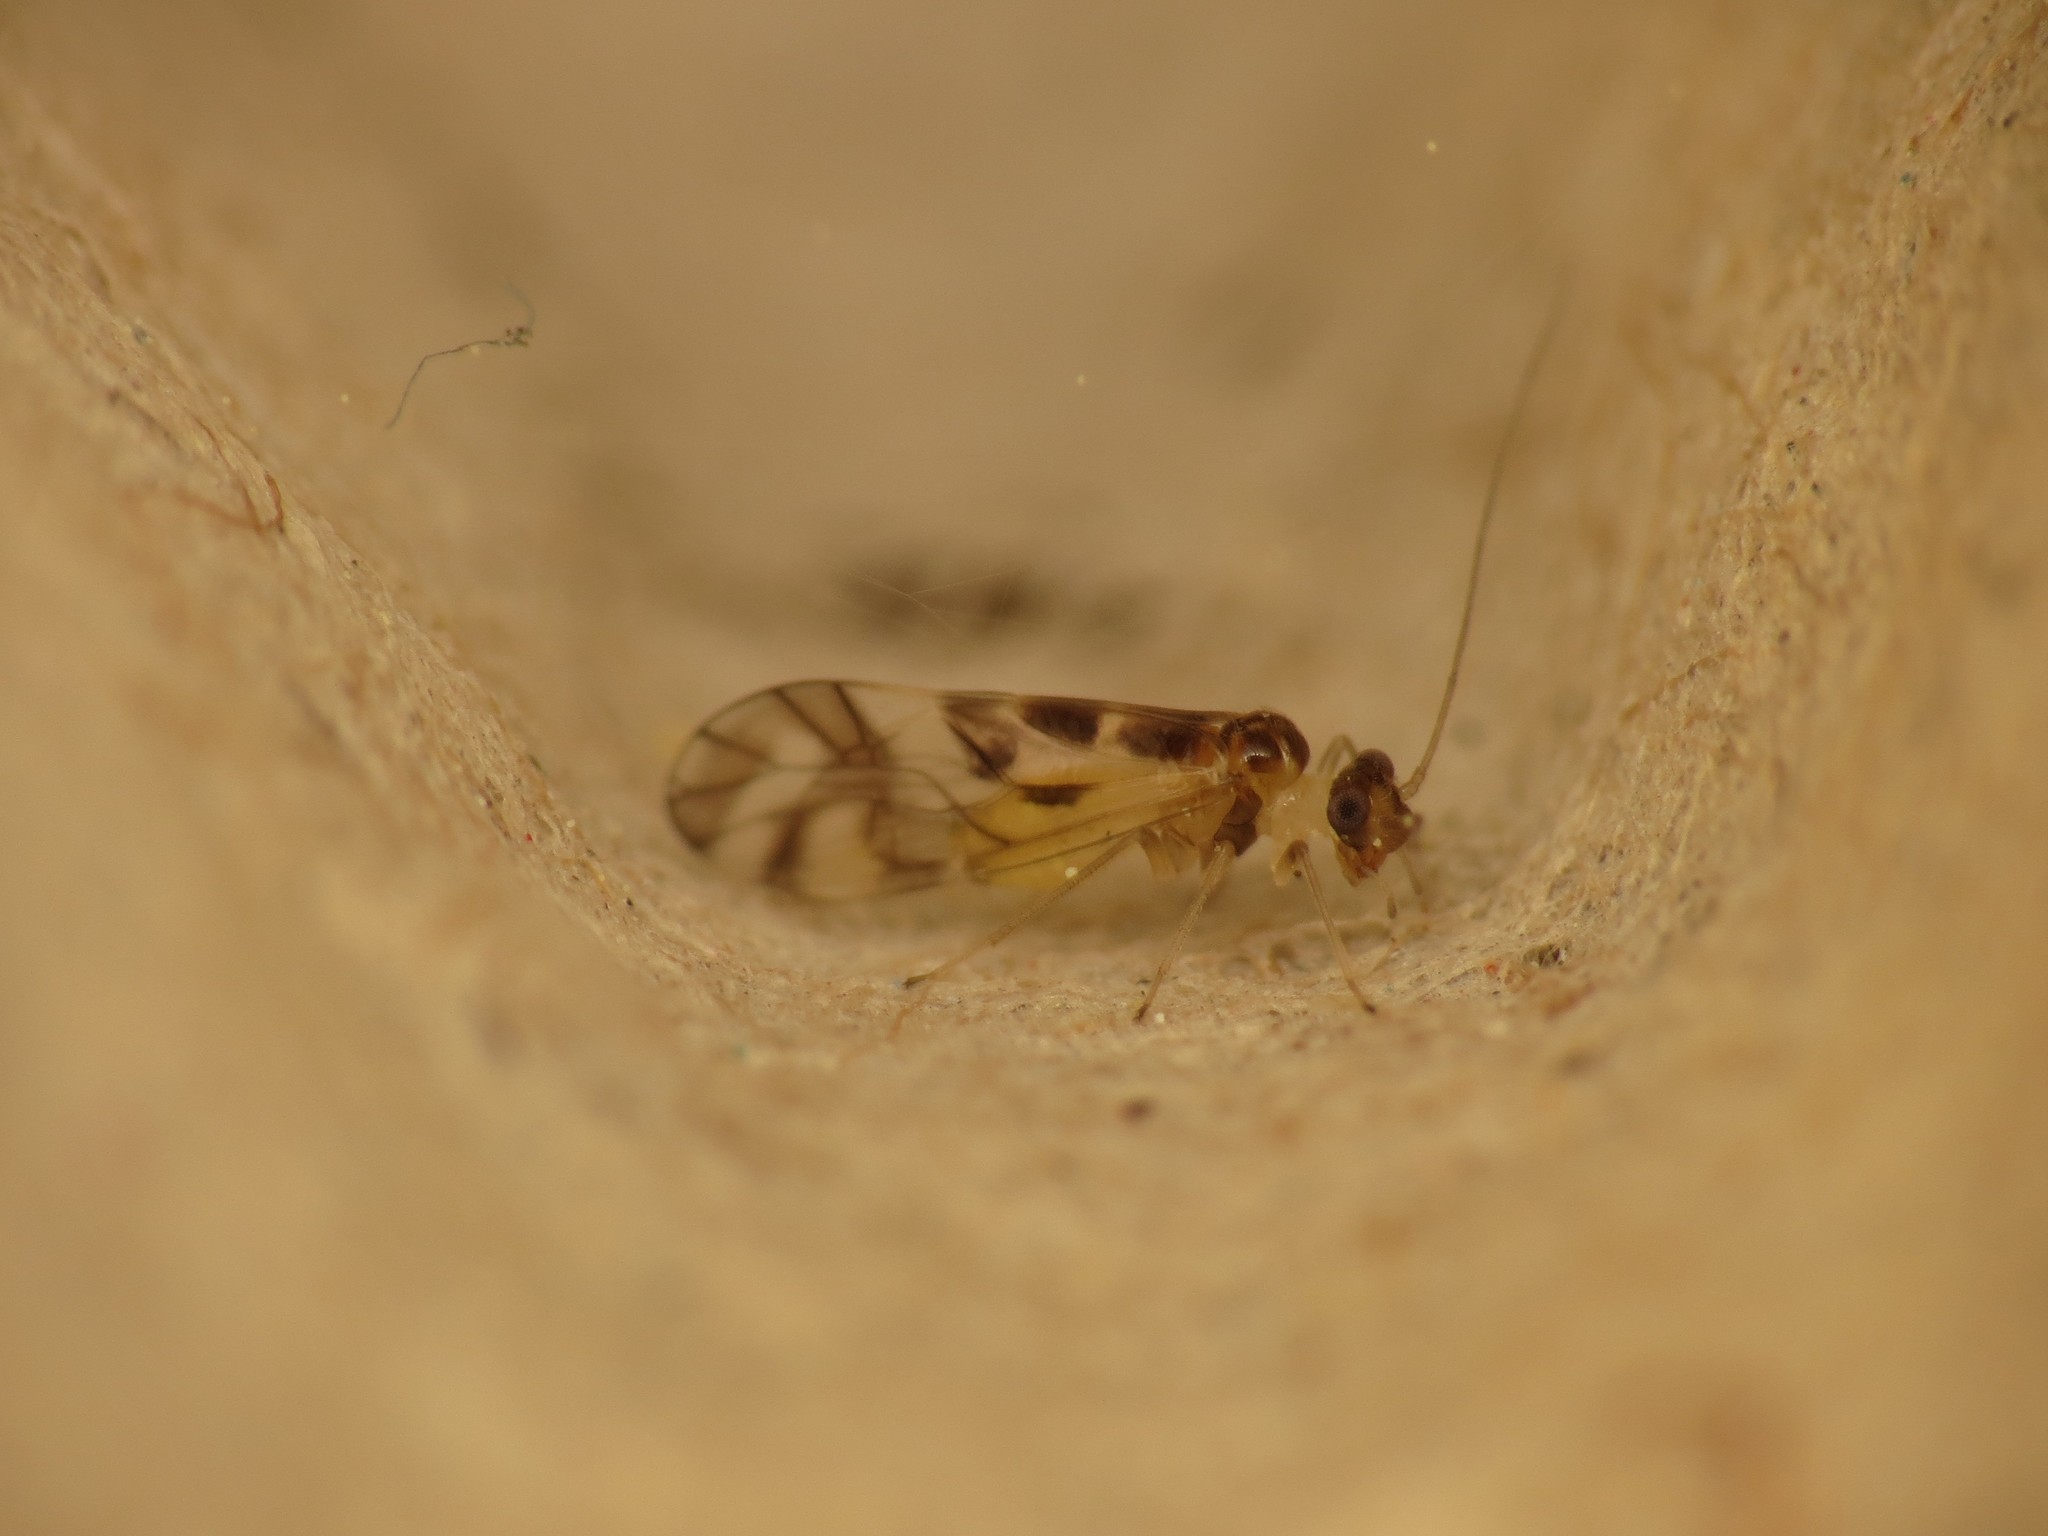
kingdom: Animalia
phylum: Arthropoda
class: Insecta
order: Psocodea
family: Stenopsocidae
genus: Graphopsocus
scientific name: Graphopsocus cruciatus
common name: Lizard bark louse
